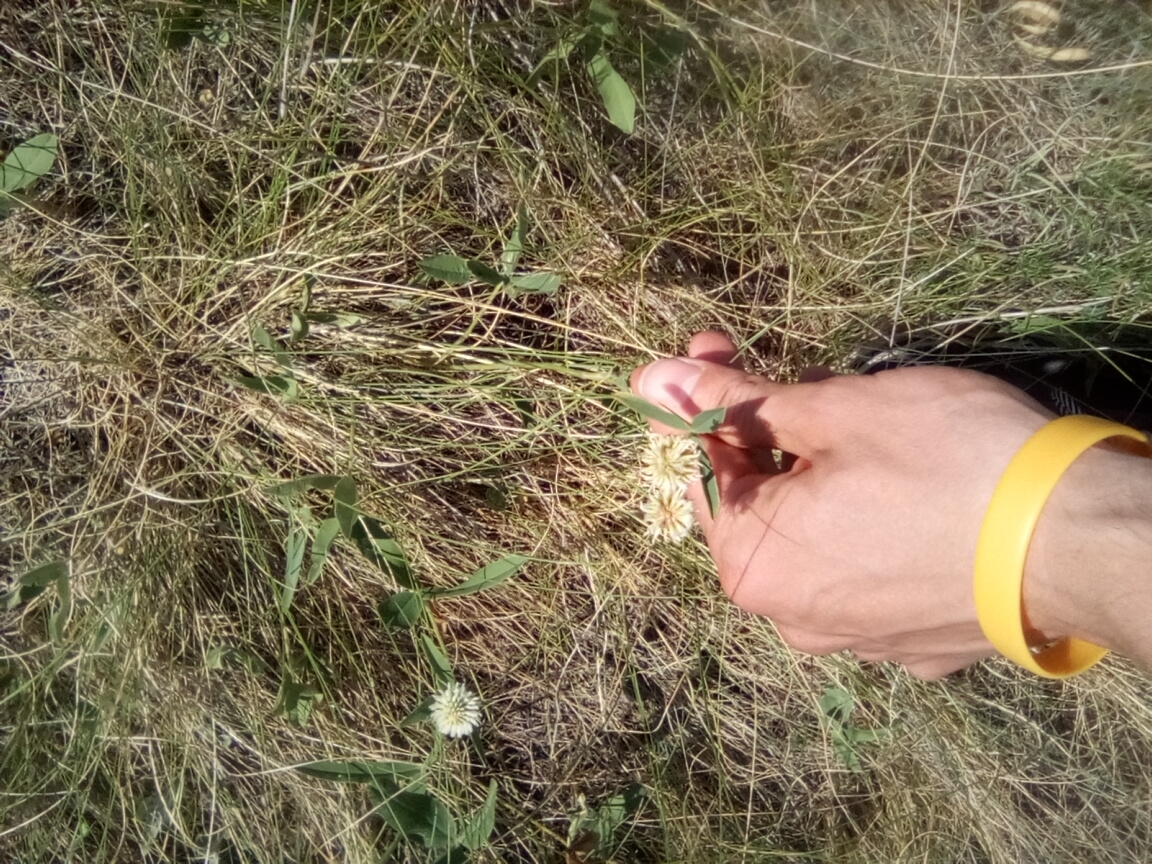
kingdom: Plantae
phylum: Tracheophyta
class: Magnoliopsida
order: Fabales
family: Fabaceae
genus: Trifolium
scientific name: Trifolium montanum
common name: Mountain clover
